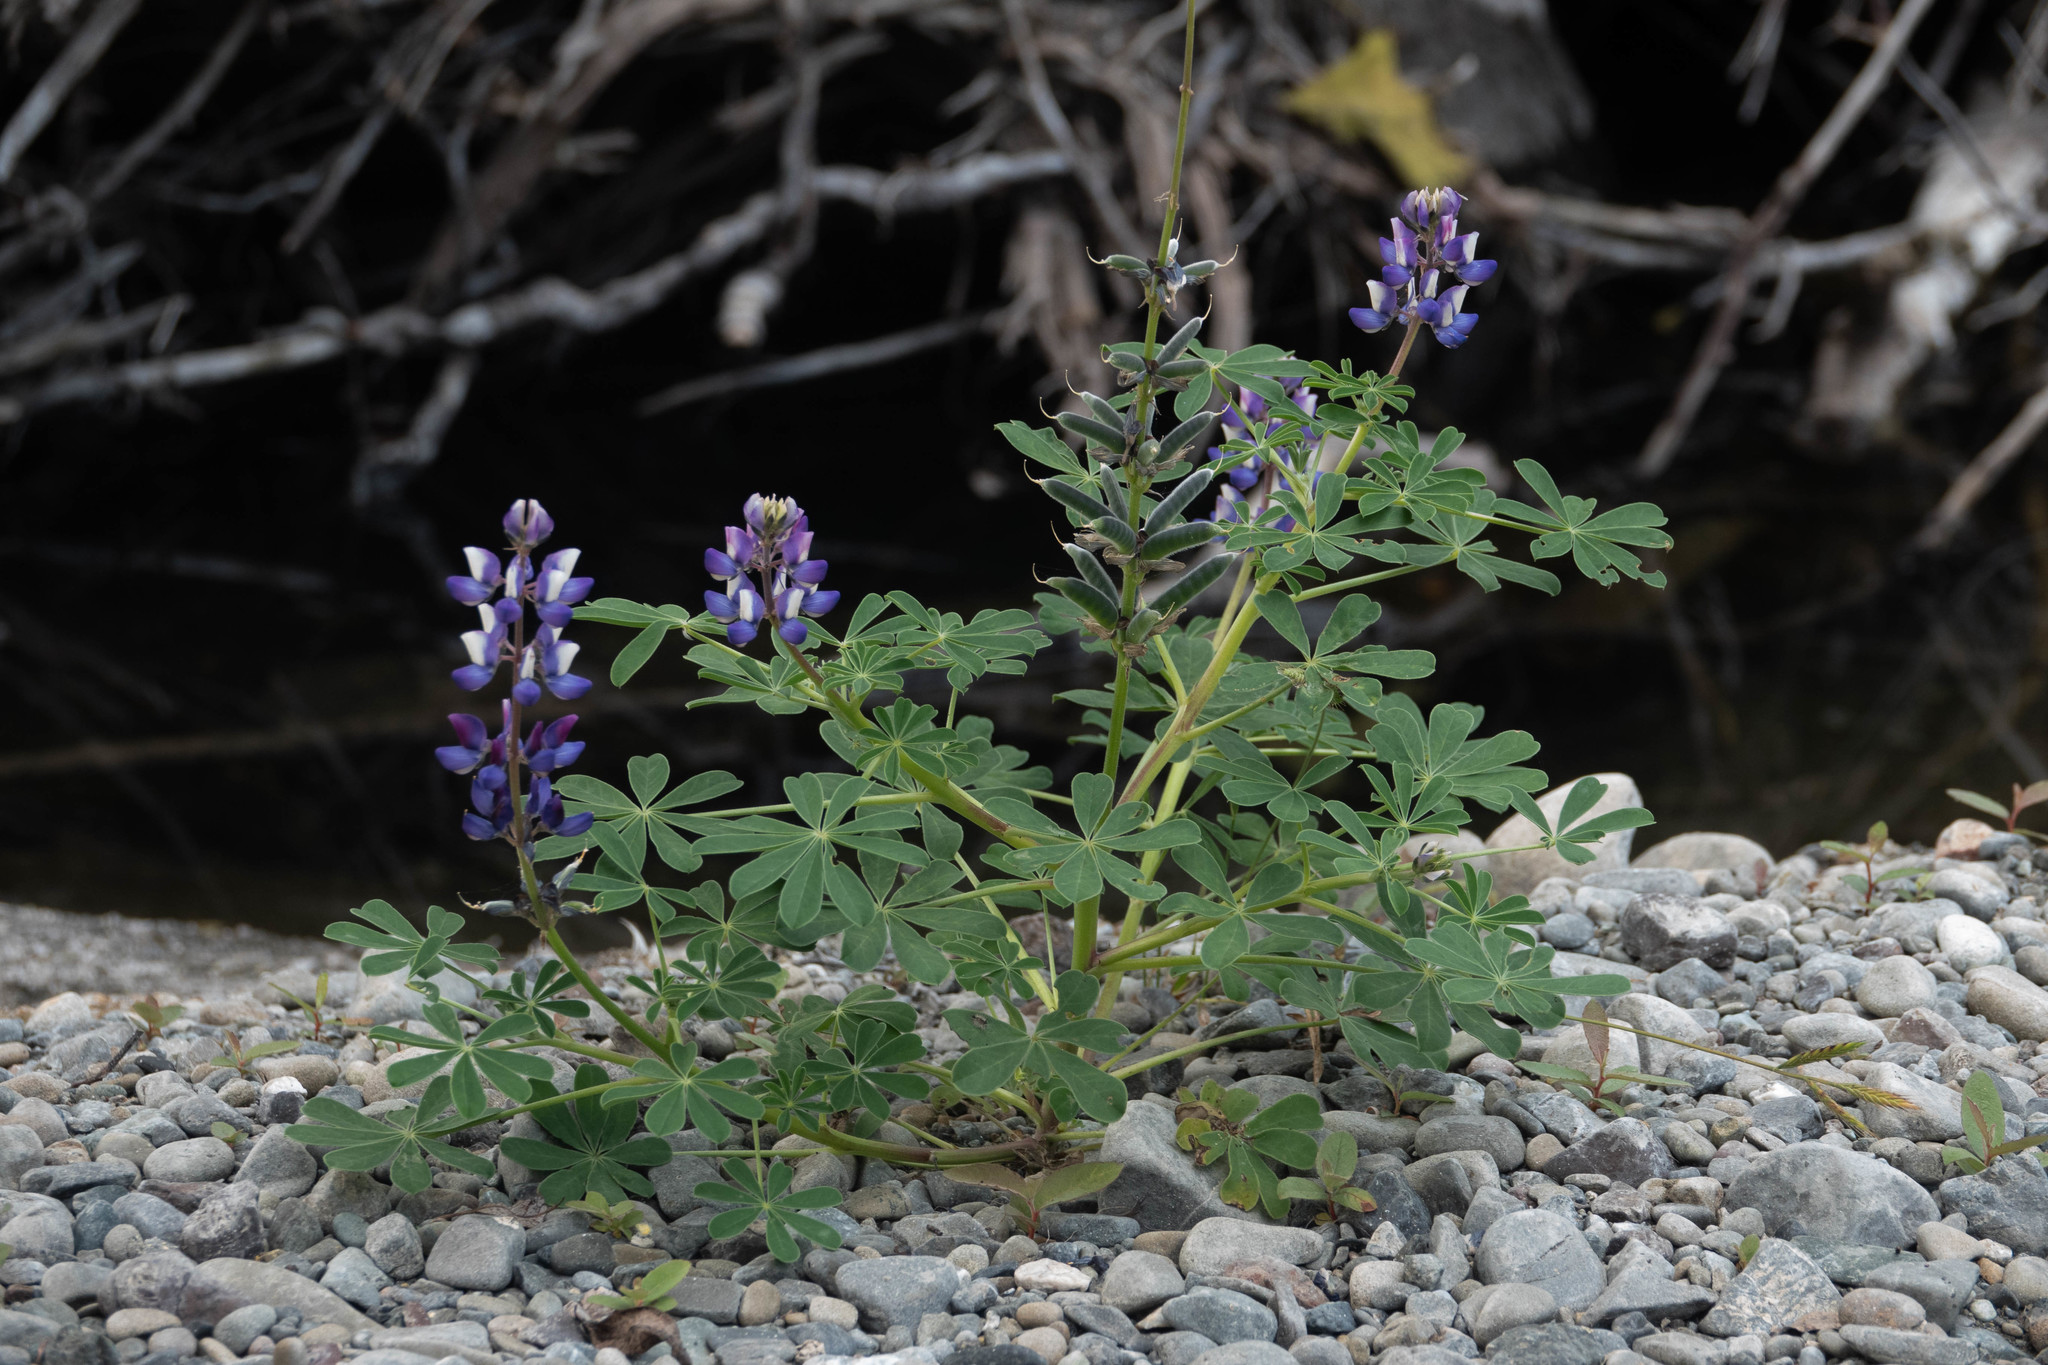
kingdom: Plantae
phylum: Tracheophyta
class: Magnoliopsida
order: Fabales
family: Fabaceae
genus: Lupinus
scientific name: Lupinus succulentus
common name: Arroyo lupine
